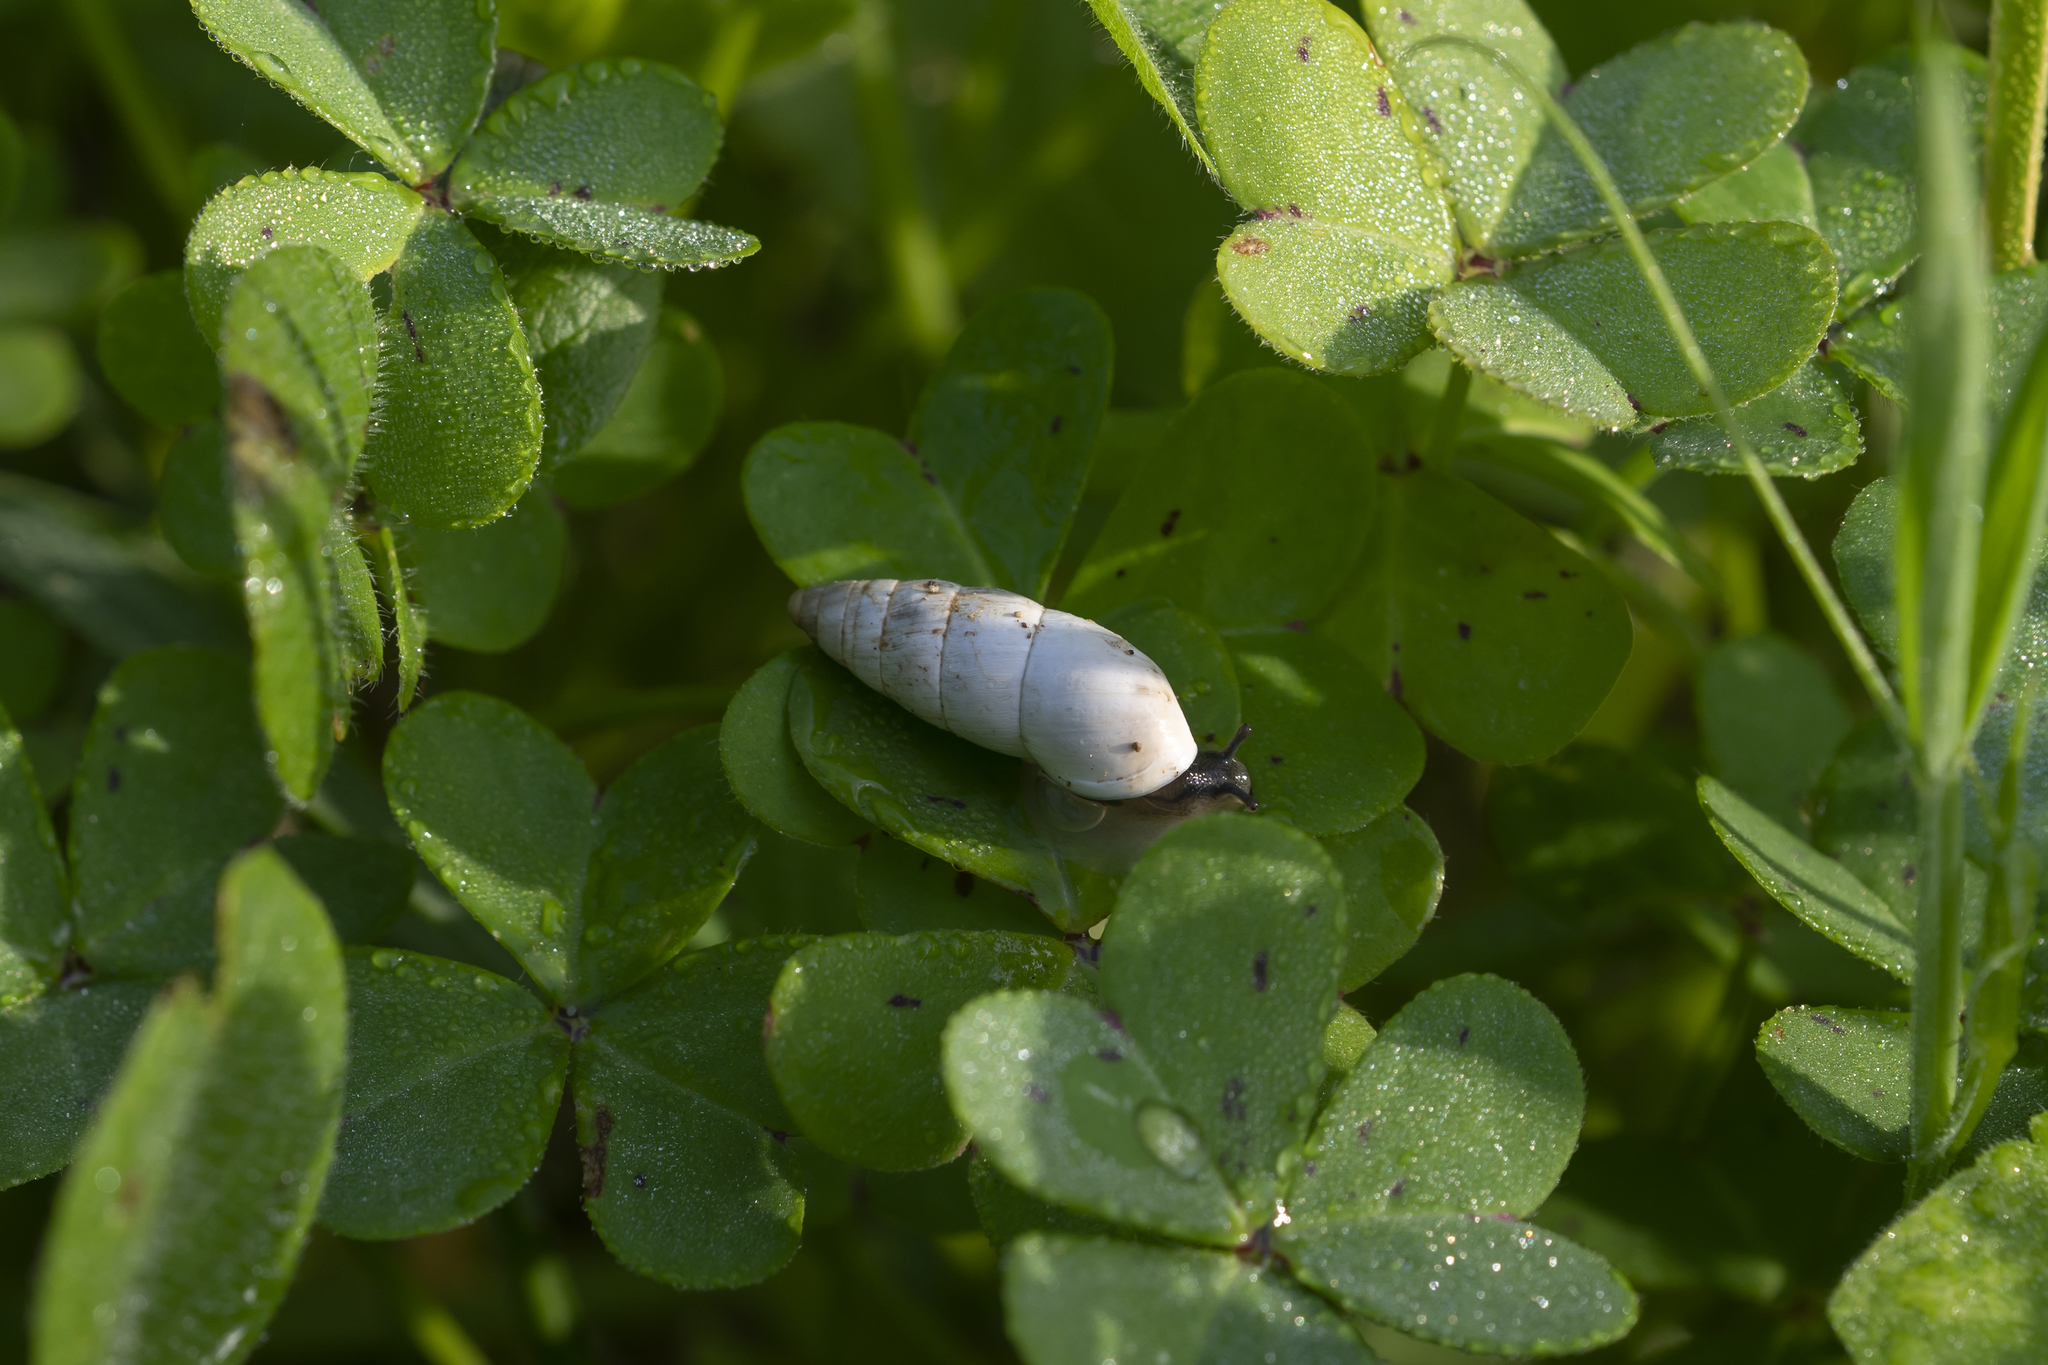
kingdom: Animalia
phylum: Mollusca
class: Gastropoda
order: Stylommatophora
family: Enidae
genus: Zebrina
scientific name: Zebrina fasciolata
